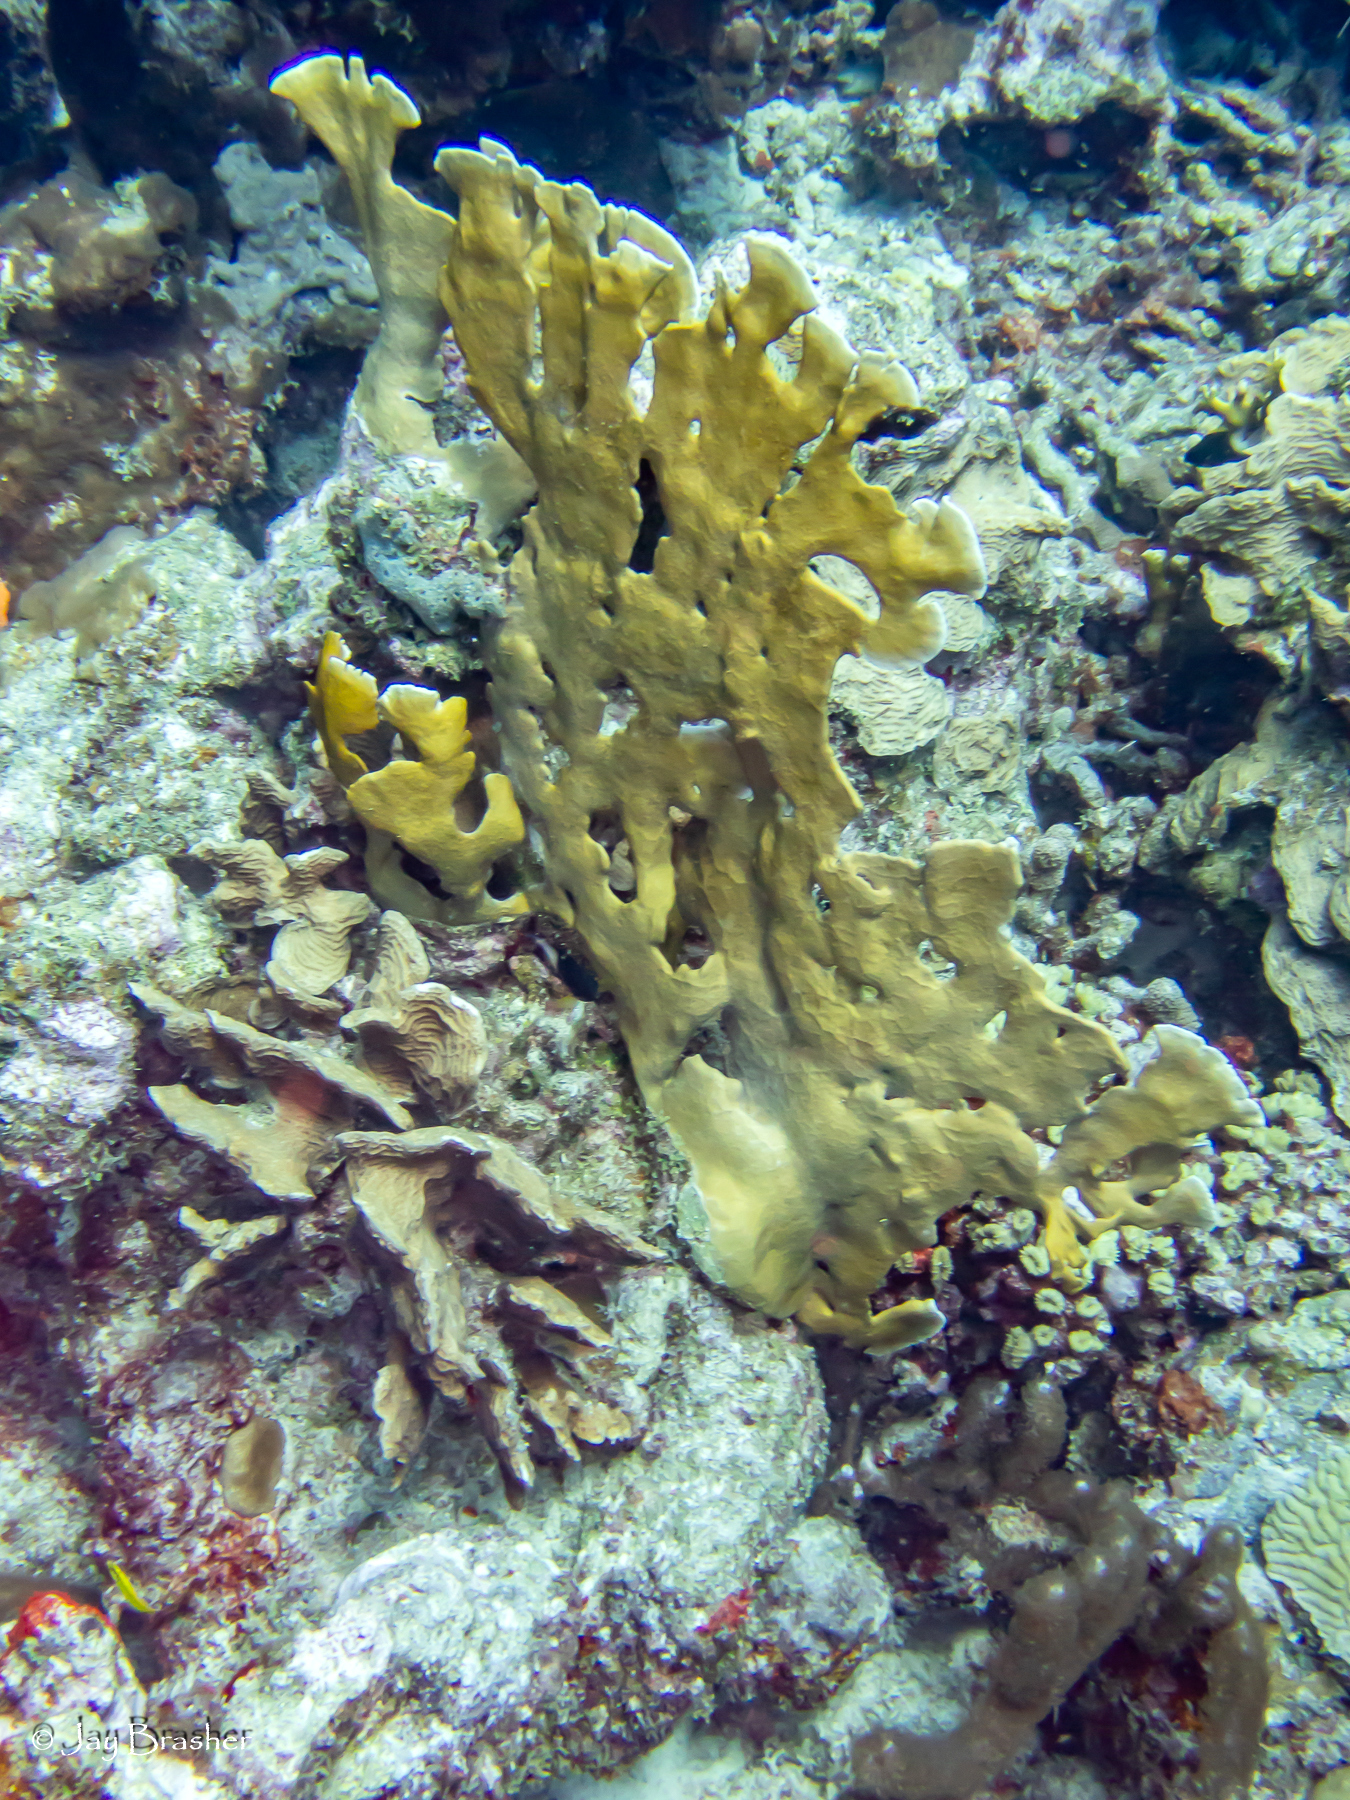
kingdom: Animalia
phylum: Cnidaria
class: Anthozoa
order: Scleractinia
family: Agariciidae
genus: Agaricia
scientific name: Agaricia agaricites
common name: Lettuce coral
